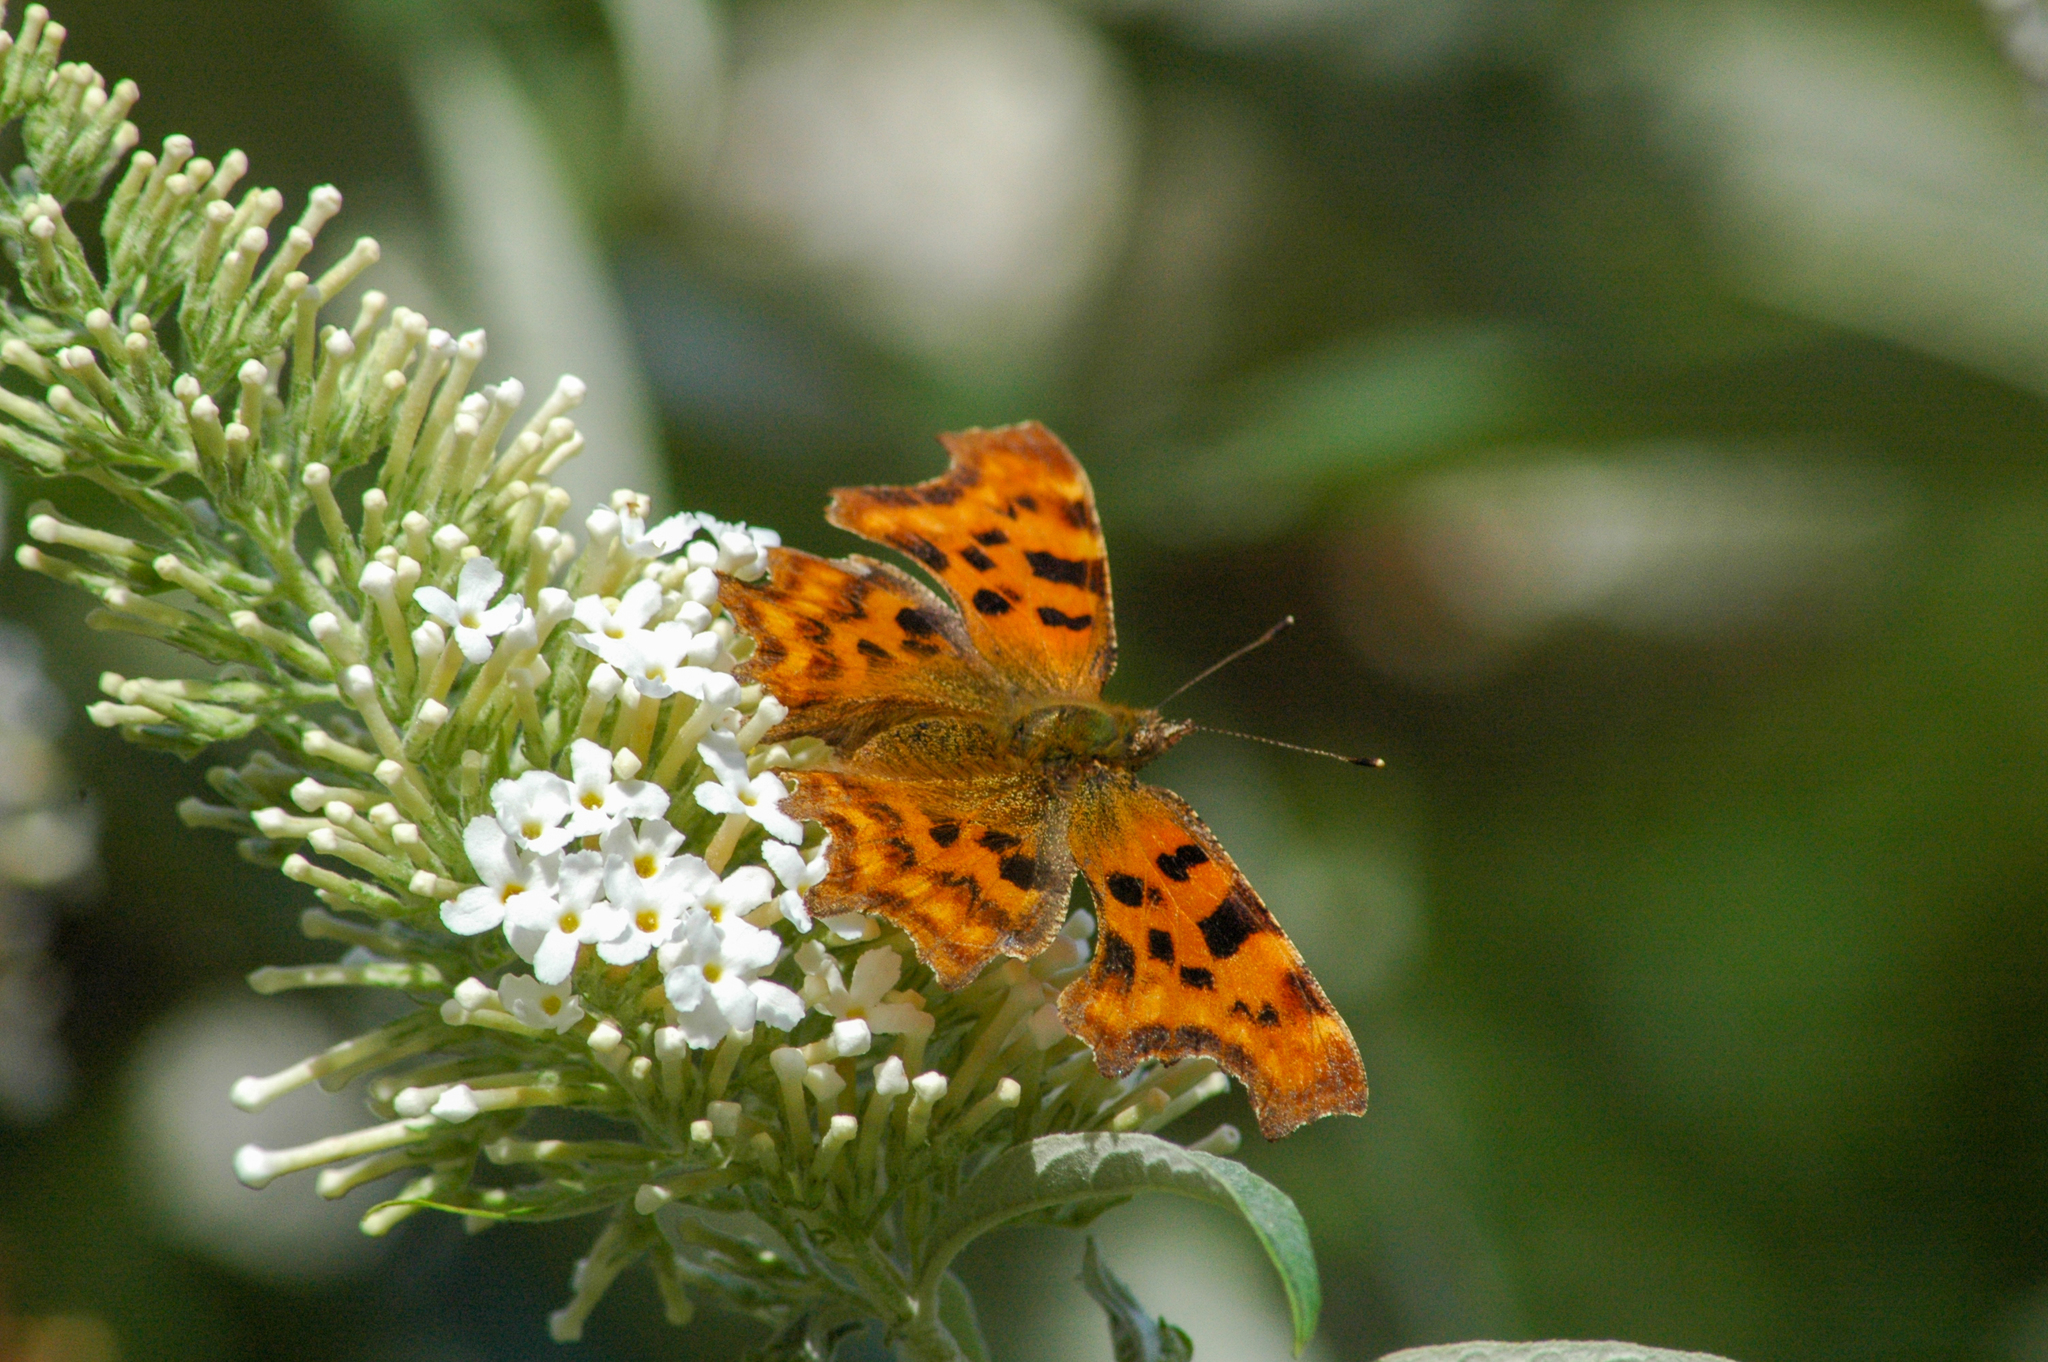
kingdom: Animalia
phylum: Arthropoda
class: Insecta
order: Lepidoptera
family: Nymphalidae
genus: Polygonia
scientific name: Polygonia c-album
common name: Comma
